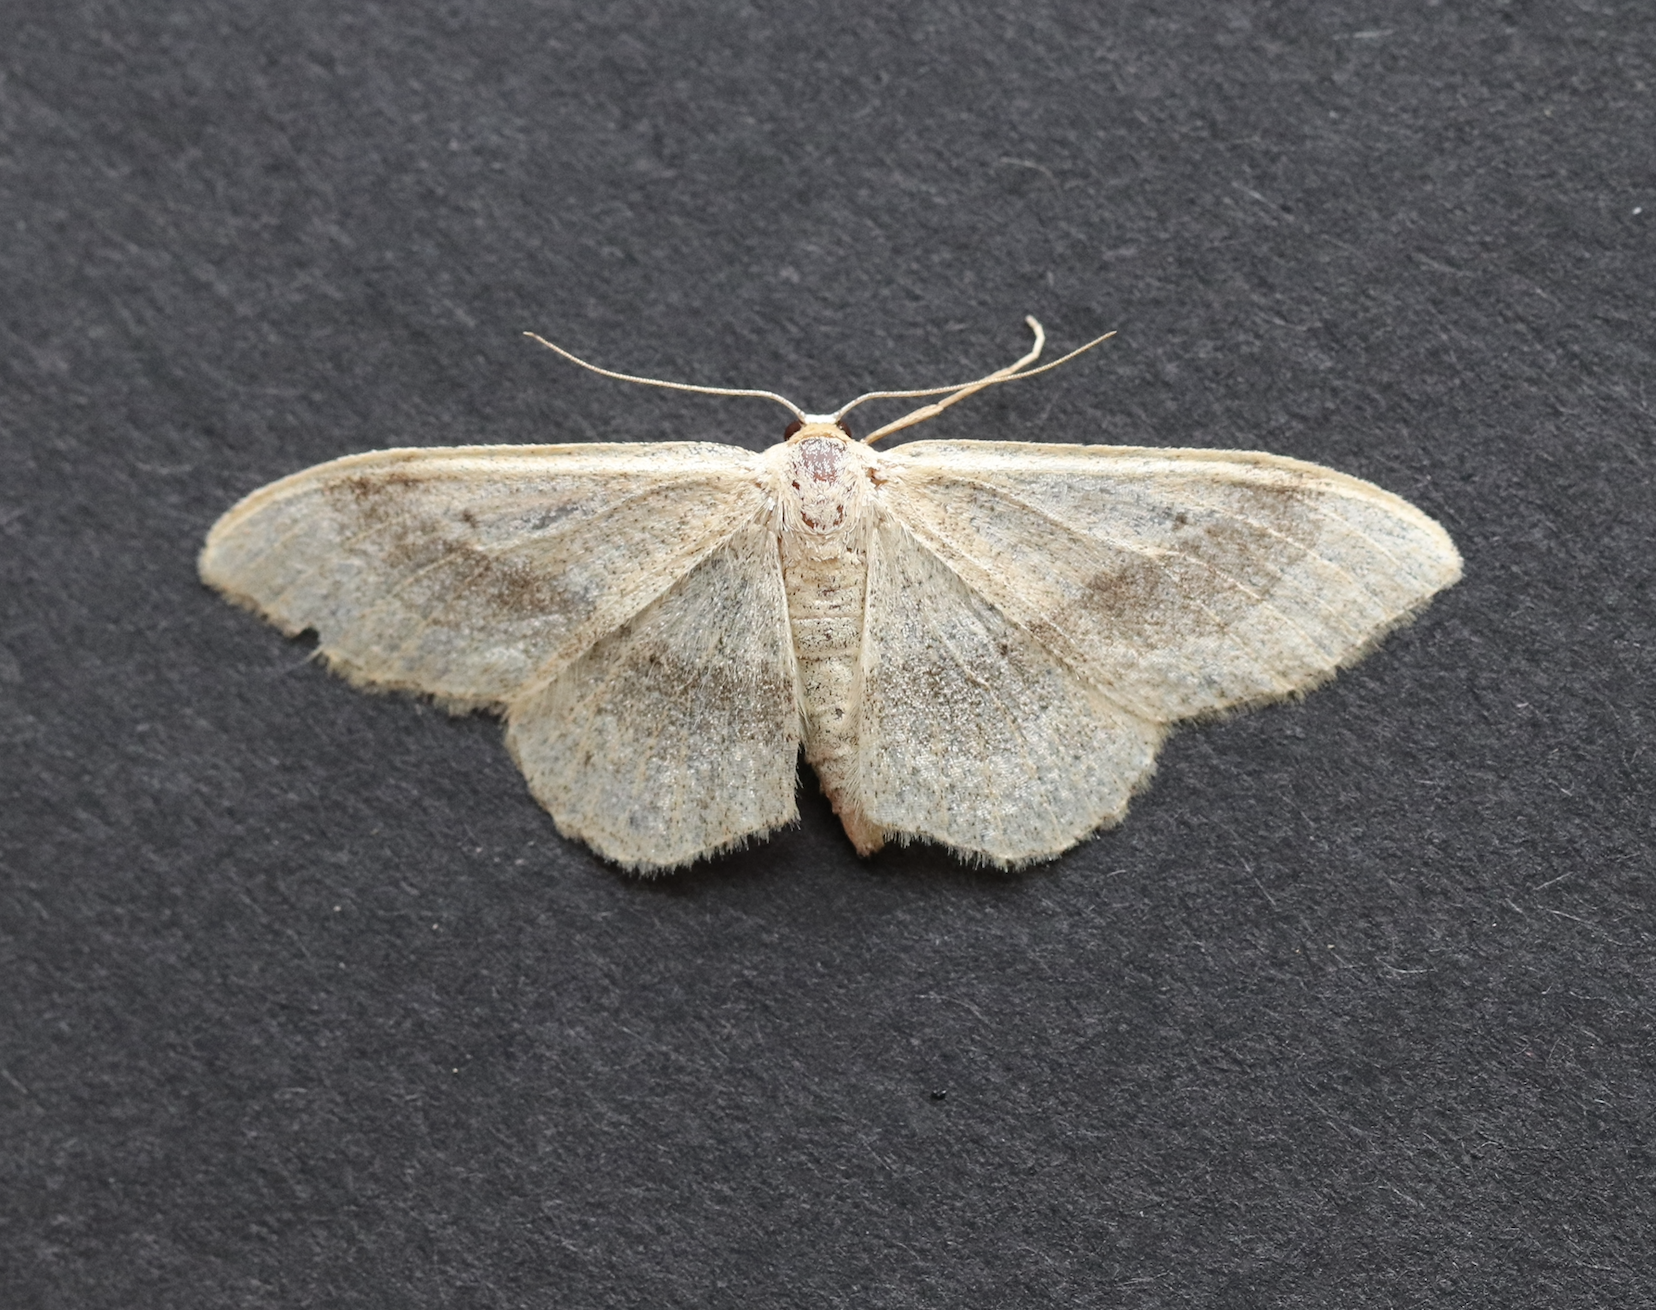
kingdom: Animalia
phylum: Arthropoda
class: Insecta
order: Lepidoptera
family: Geometridae
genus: Idaea
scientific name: Idaea aversata
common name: Riband wave
